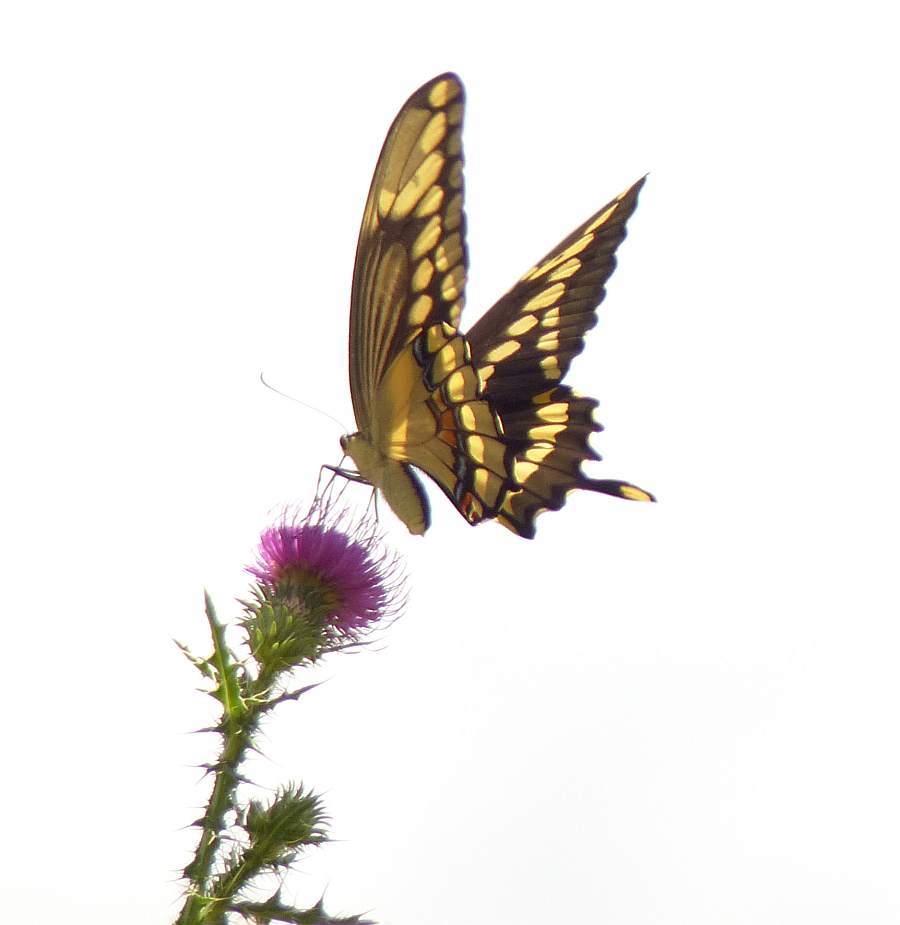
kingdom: Animalia
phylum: Arthropoda
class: Insecta
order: Lepidoptera
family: Papilionidae
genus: Papilio
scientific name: Papilio cresphontes
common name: Giant swallowtail
